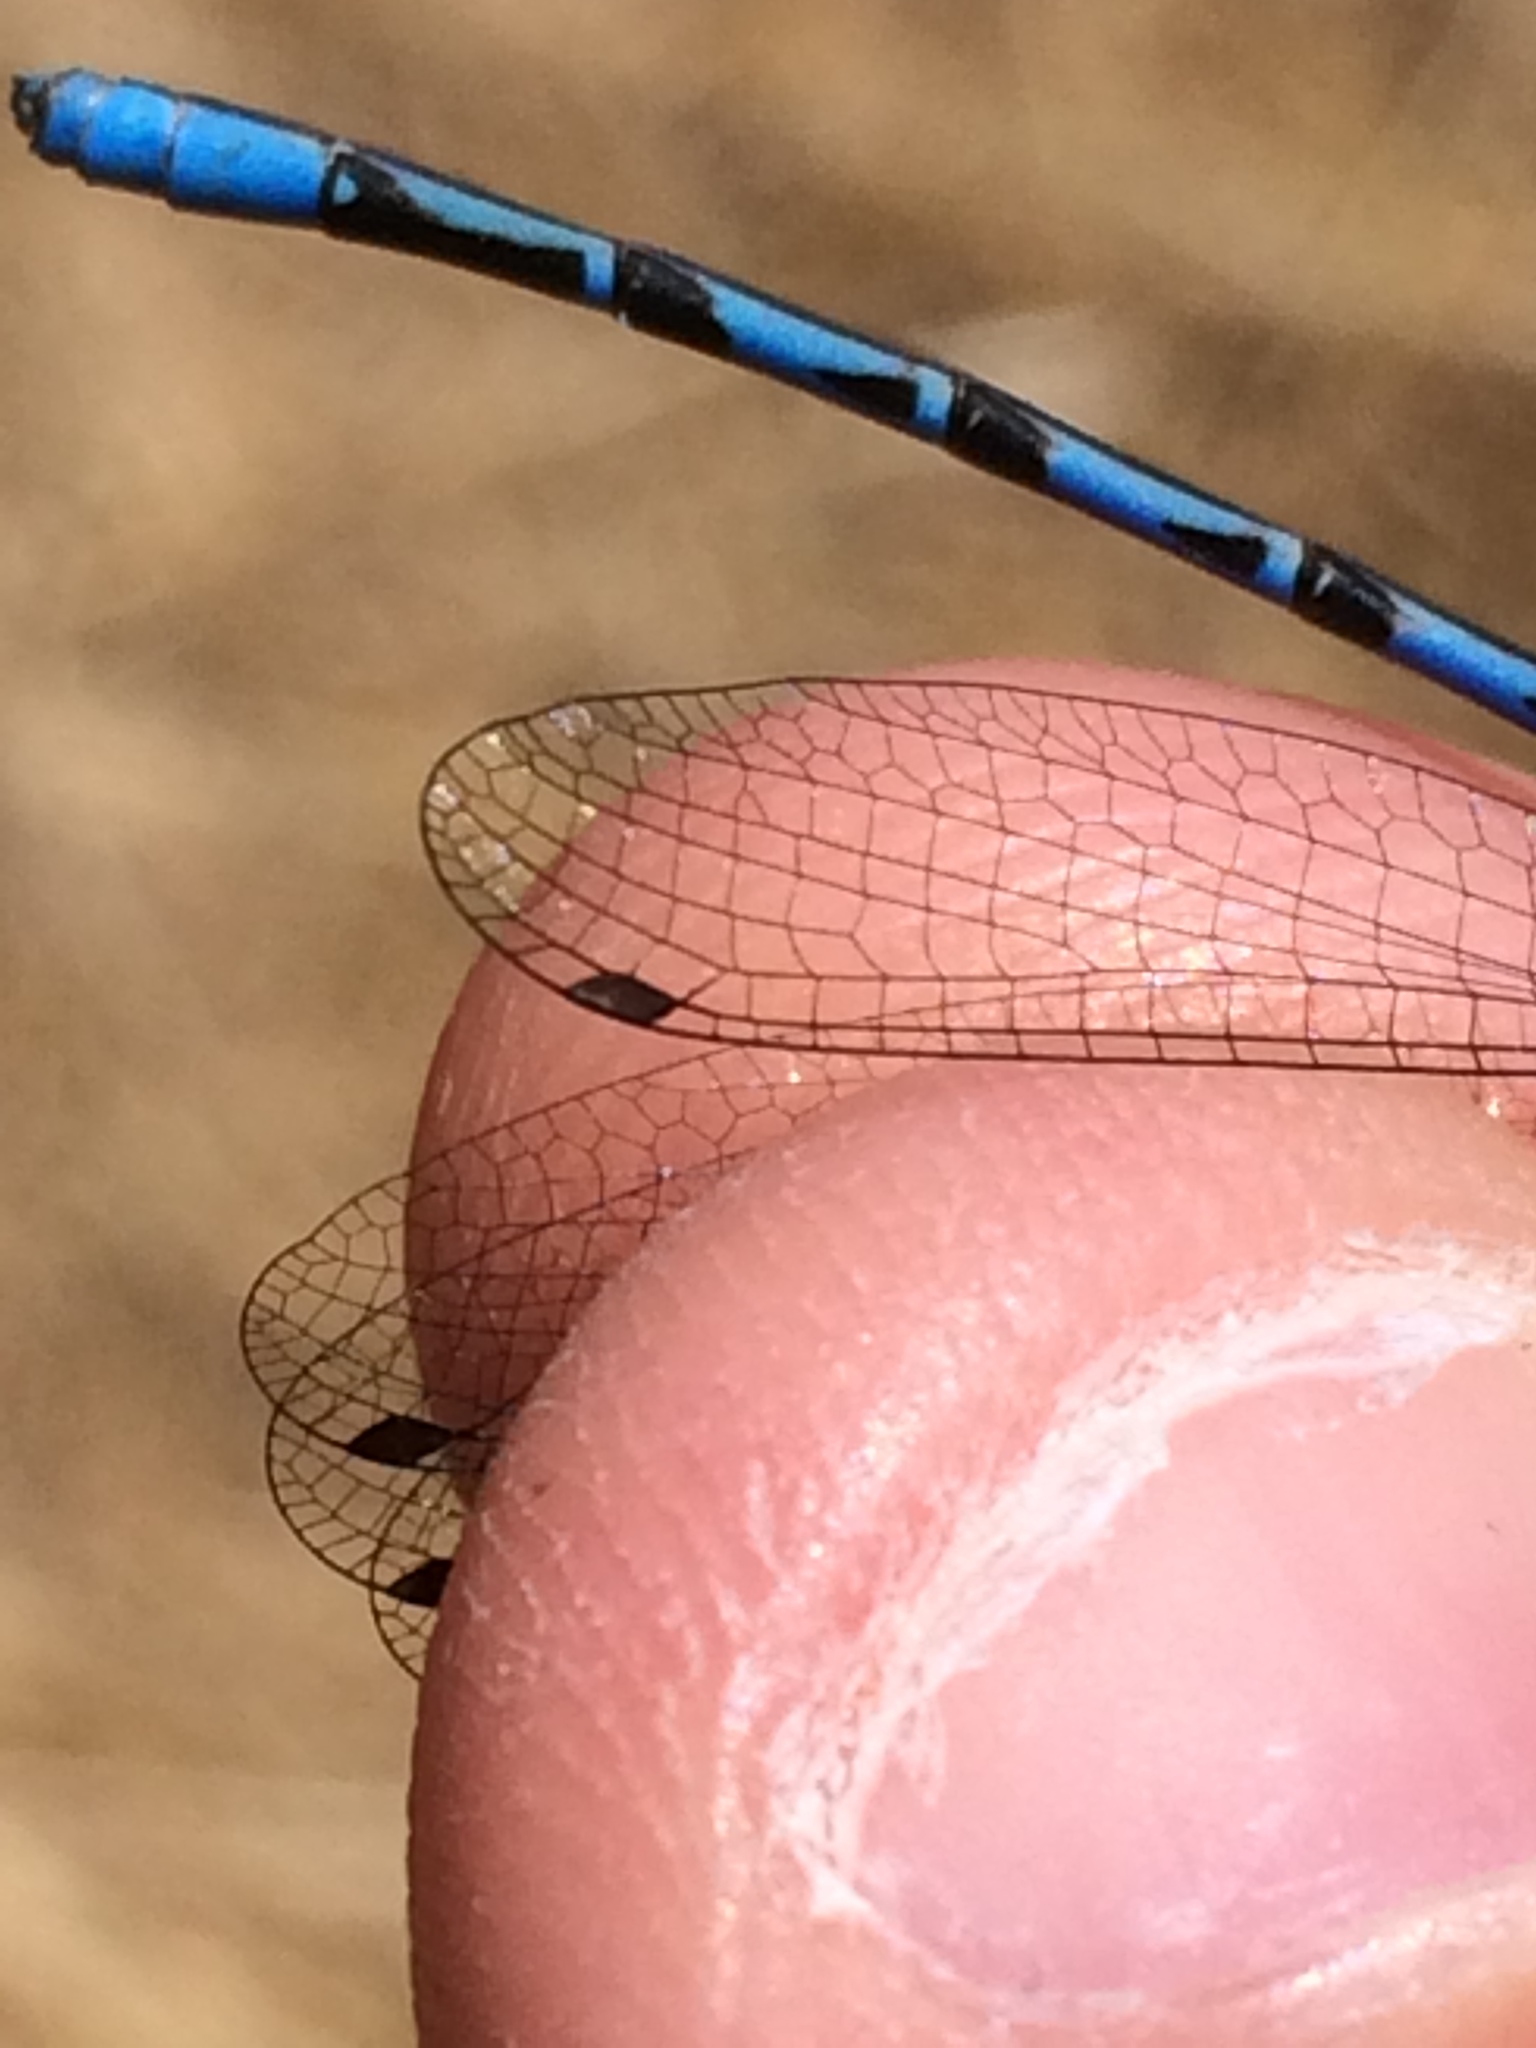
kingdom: Animalia
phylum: Arthropoda
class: Insecta
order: Odonata
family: Coenagrionidae
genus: Argia
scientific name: Argia vivida
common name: Vivid dancer
